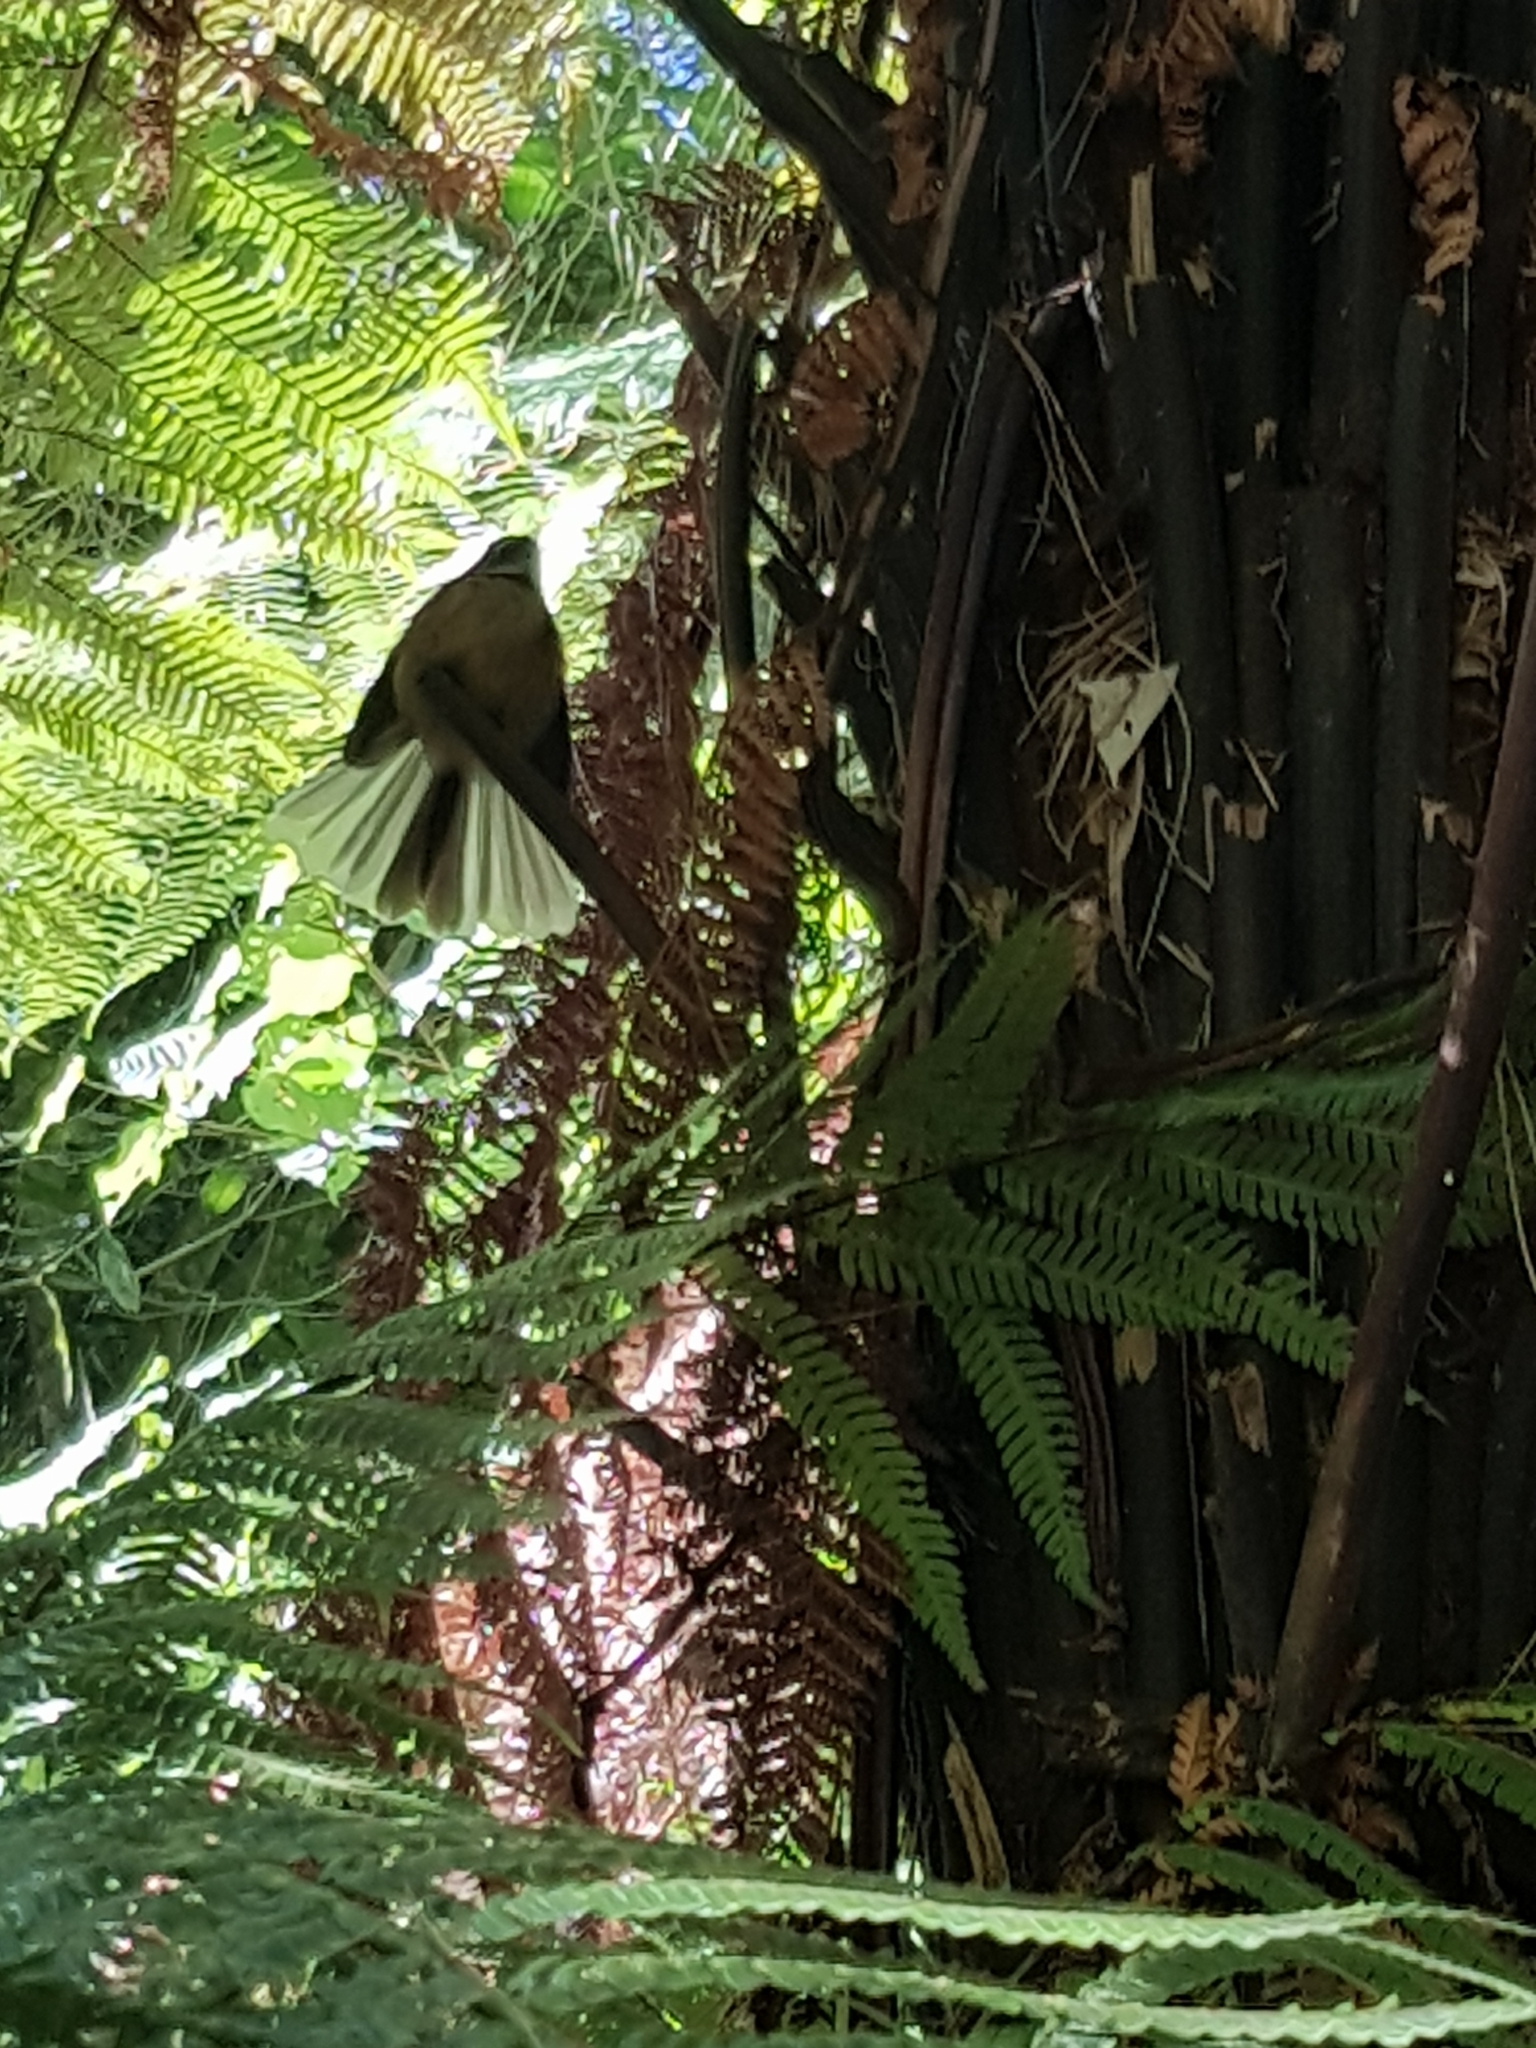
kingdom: Animalia
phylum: Chordata
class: Aves
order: Passeriformes
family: Rhipiduridae
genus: Rhipidura
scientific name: Rhipidura fuliginosa
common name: New zealand fantail
